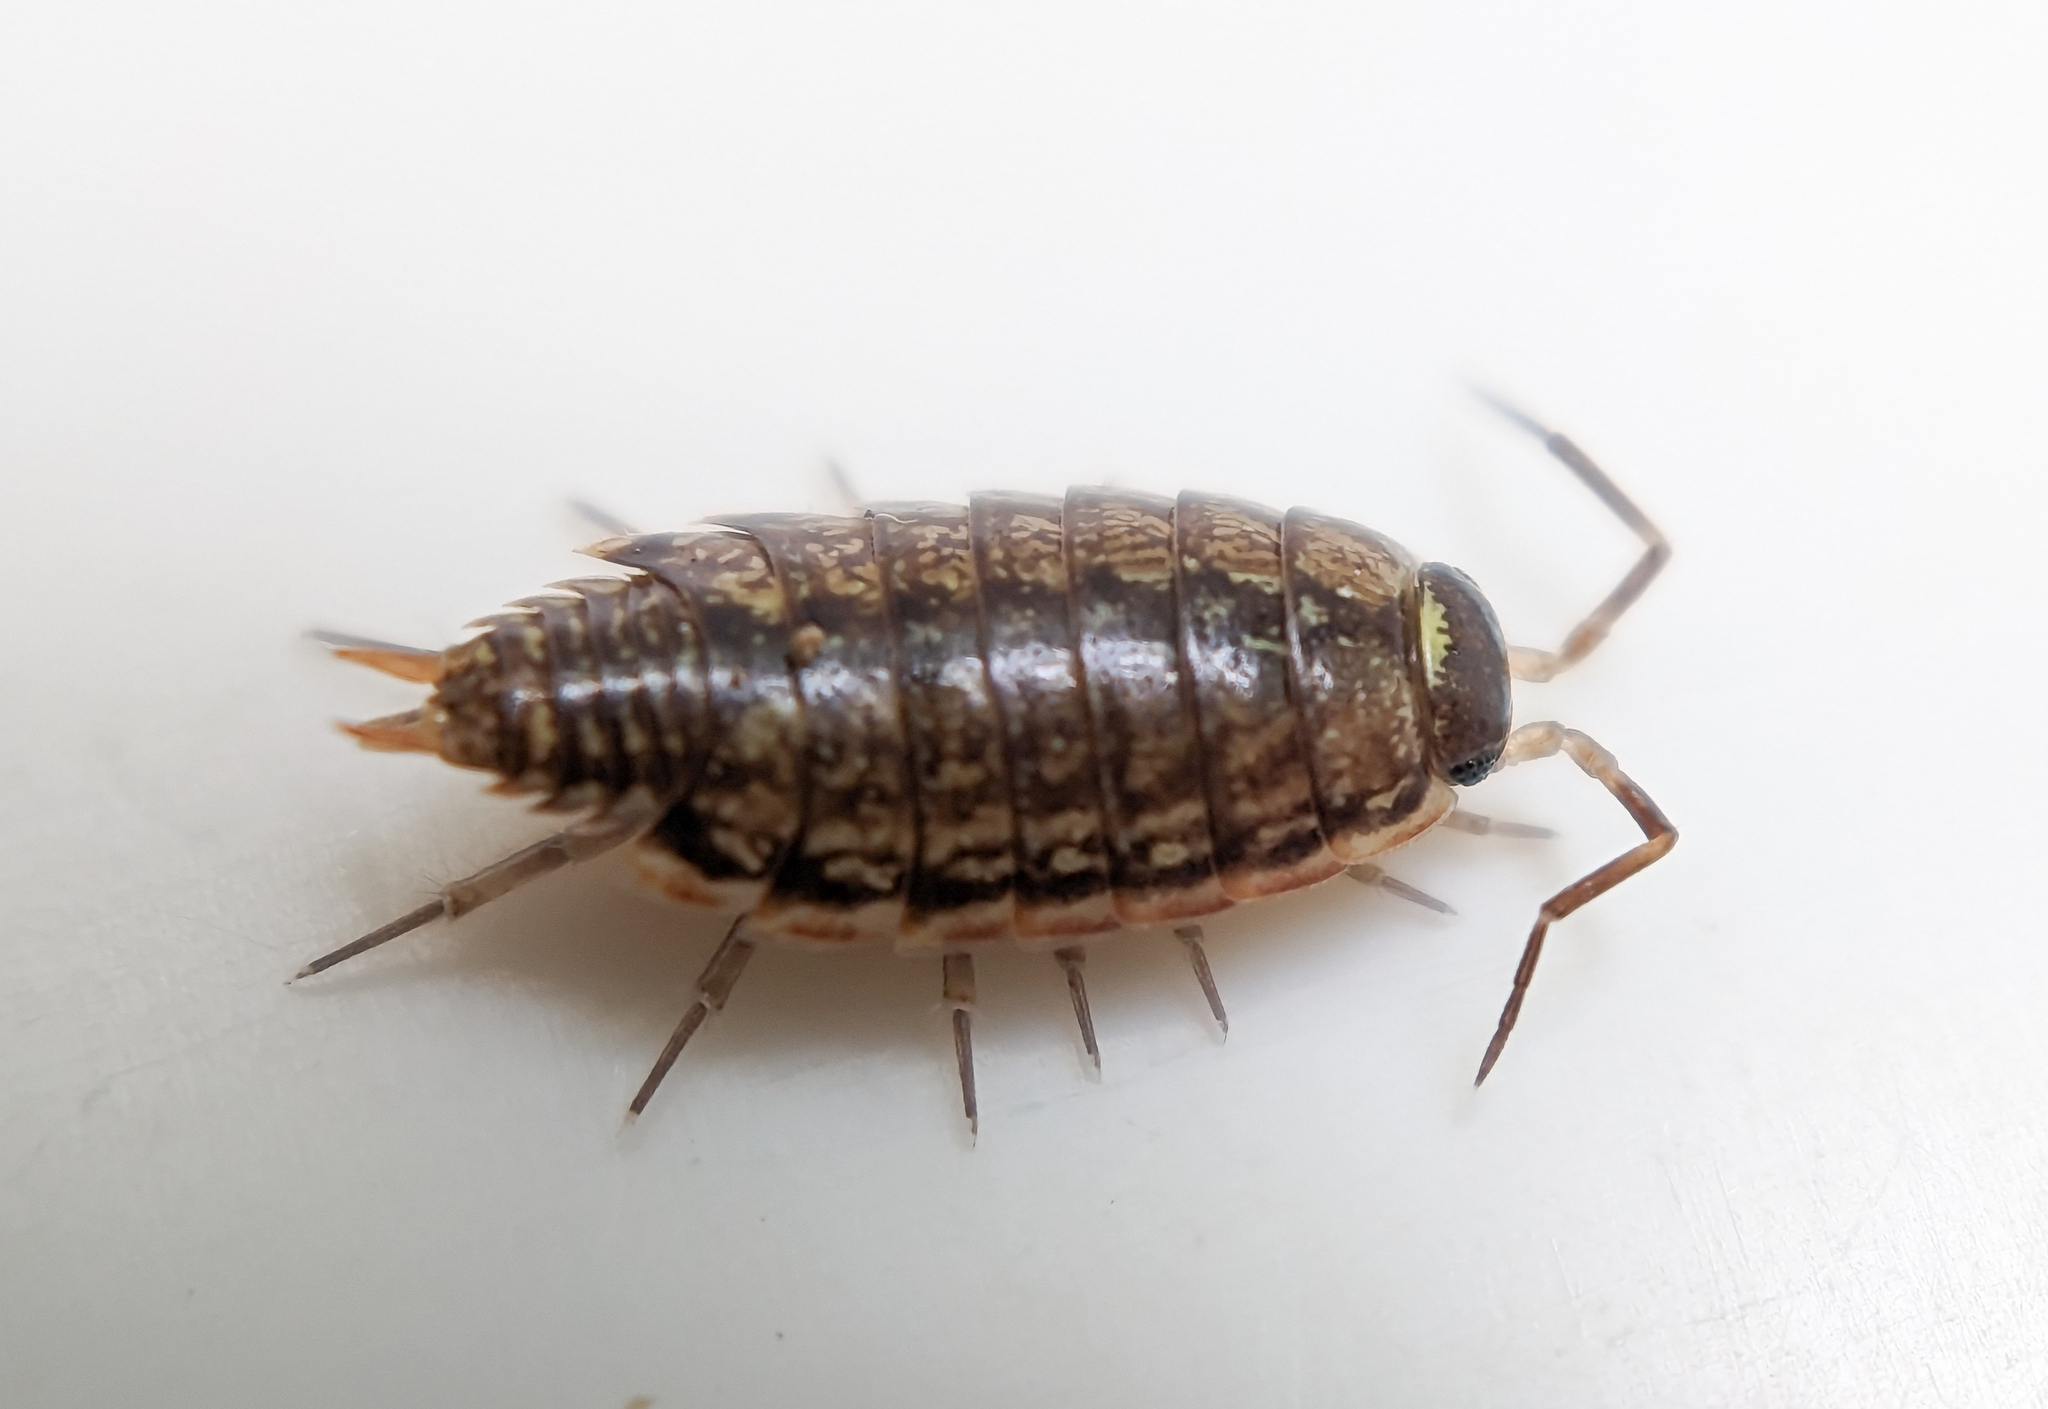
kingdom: Animalia
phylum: Arthropoda
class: Malacostraca
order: Isopoda
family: Philosciidae
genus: Philoscia
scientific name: Philoscia muscorum
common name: Common striped woodlouse
